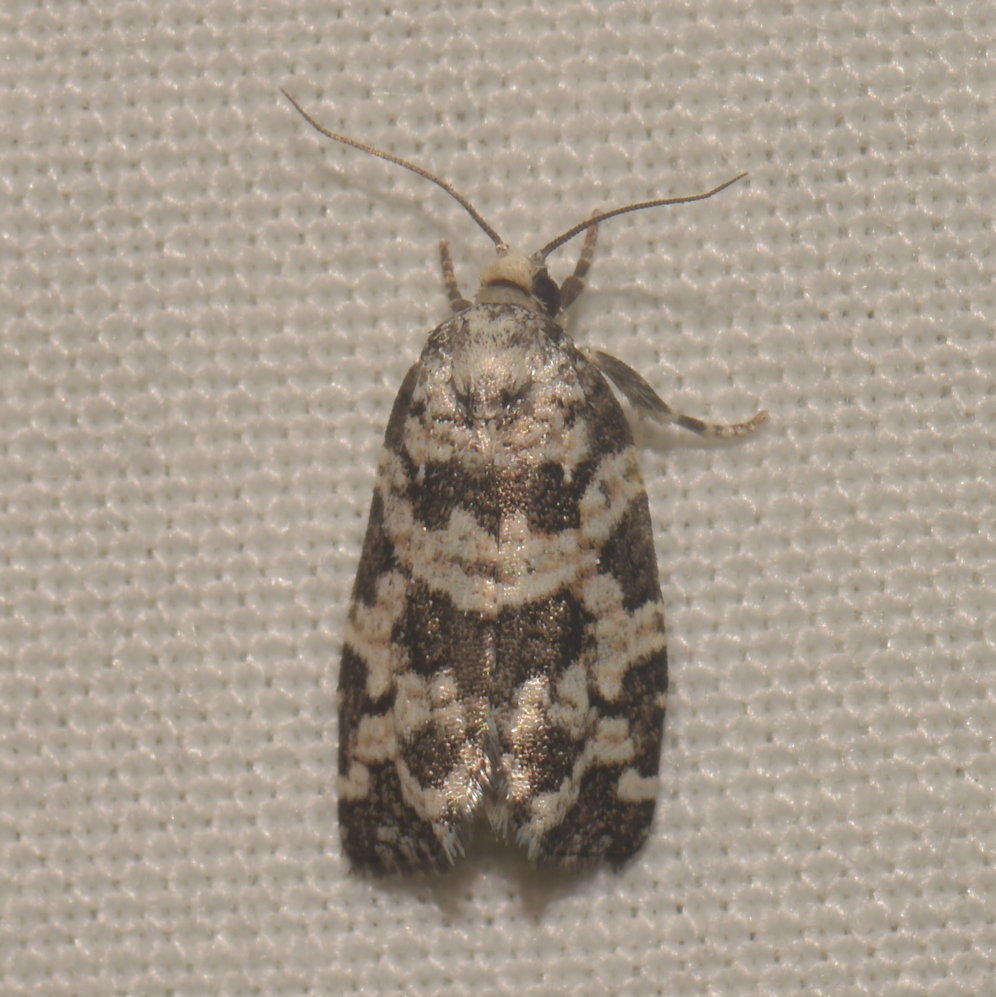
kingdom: Animalia
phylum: Arthropoda
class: Insecta
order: Lepidoptera
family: Tortricidae
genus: Archips
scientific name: Archips packardiana
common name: Spring spruce needle moth
